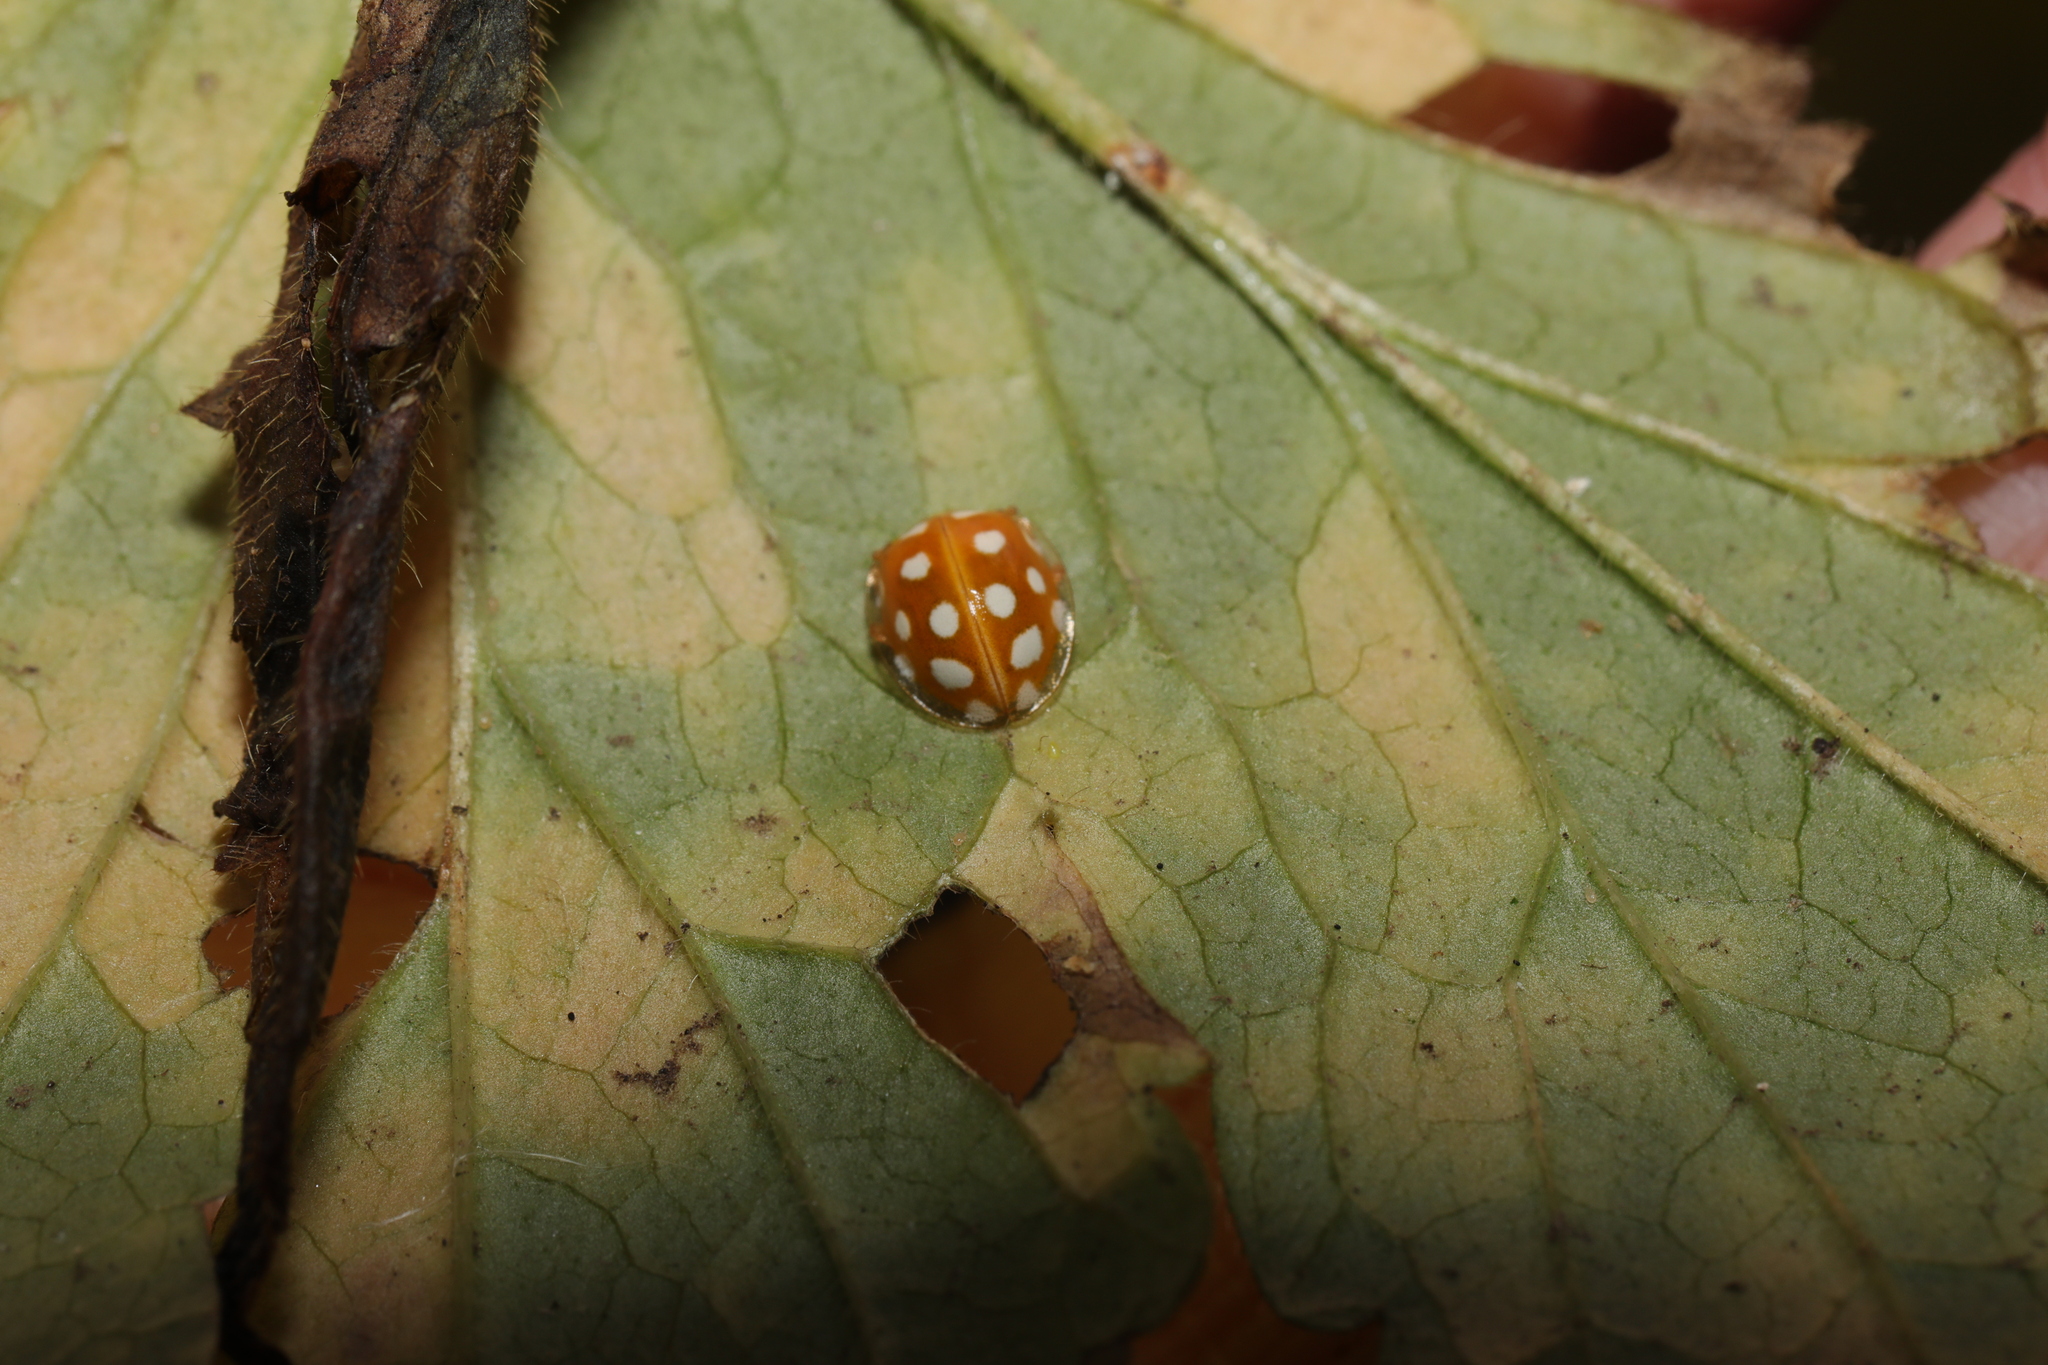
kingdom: Animalia
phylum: Arthropoda
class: Insecta
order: Coleoptera
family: Coccinellidae
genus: Halyzia
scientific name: Halyzia sedecimguttata
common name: Orange ladybird
